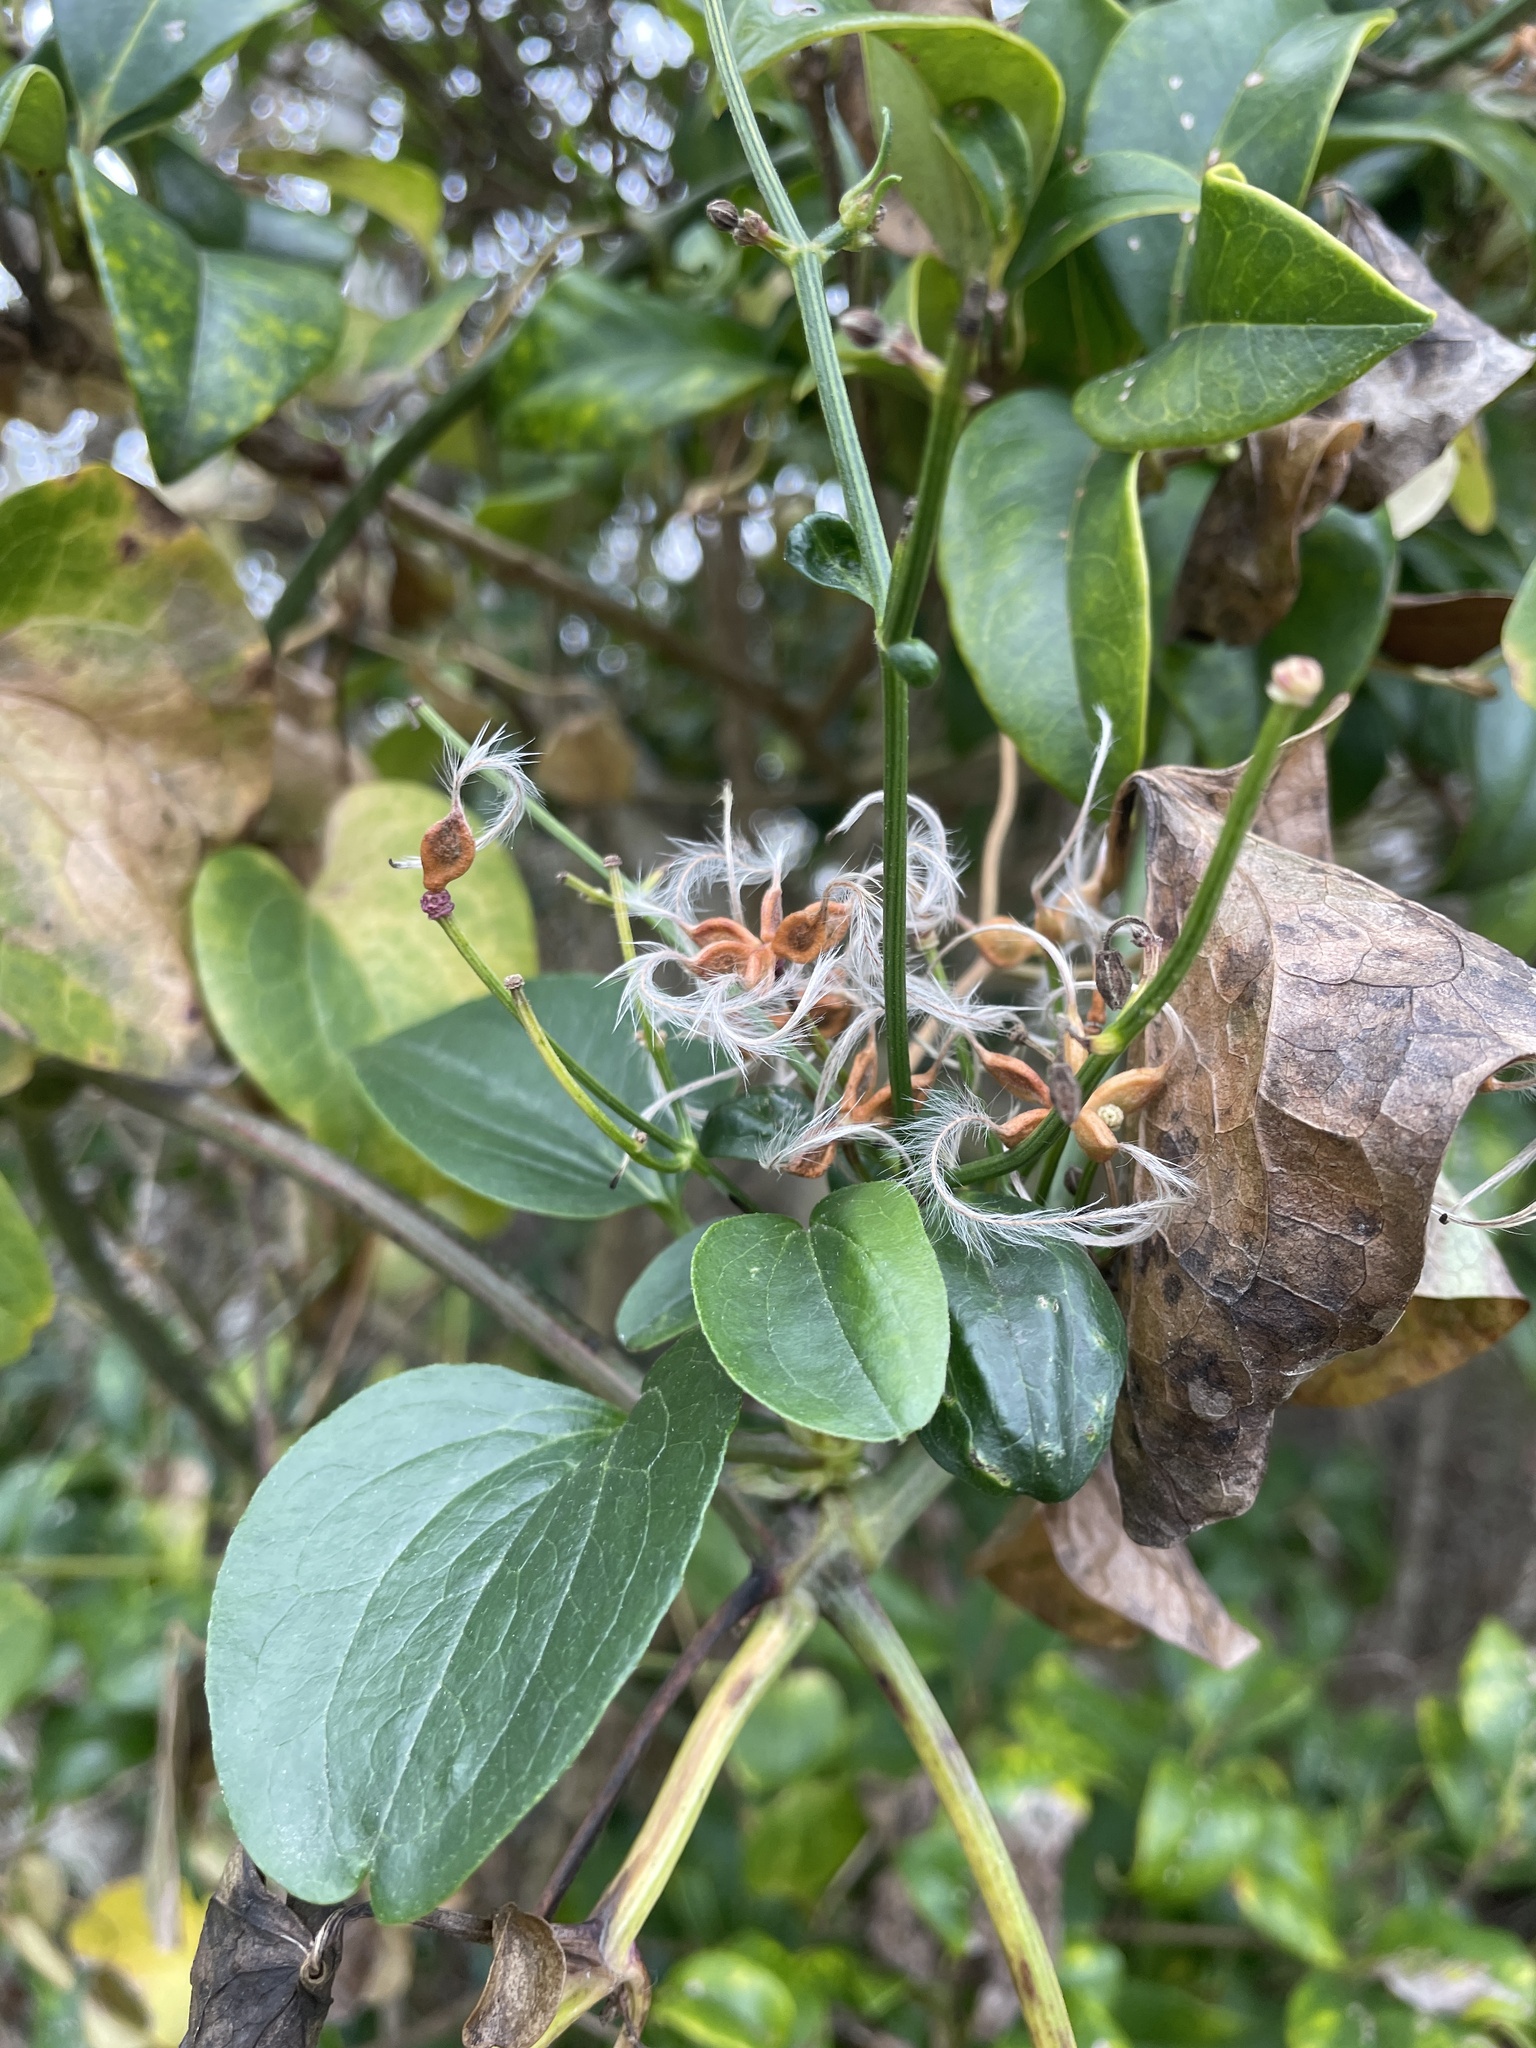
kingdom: Plantae
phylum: Tracheophyta
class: Magnoliopsida
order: Ranunculales
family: Ranunculaceae
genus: Clematis
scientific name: Clematis terniflora
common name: Sweet autumn clematis
